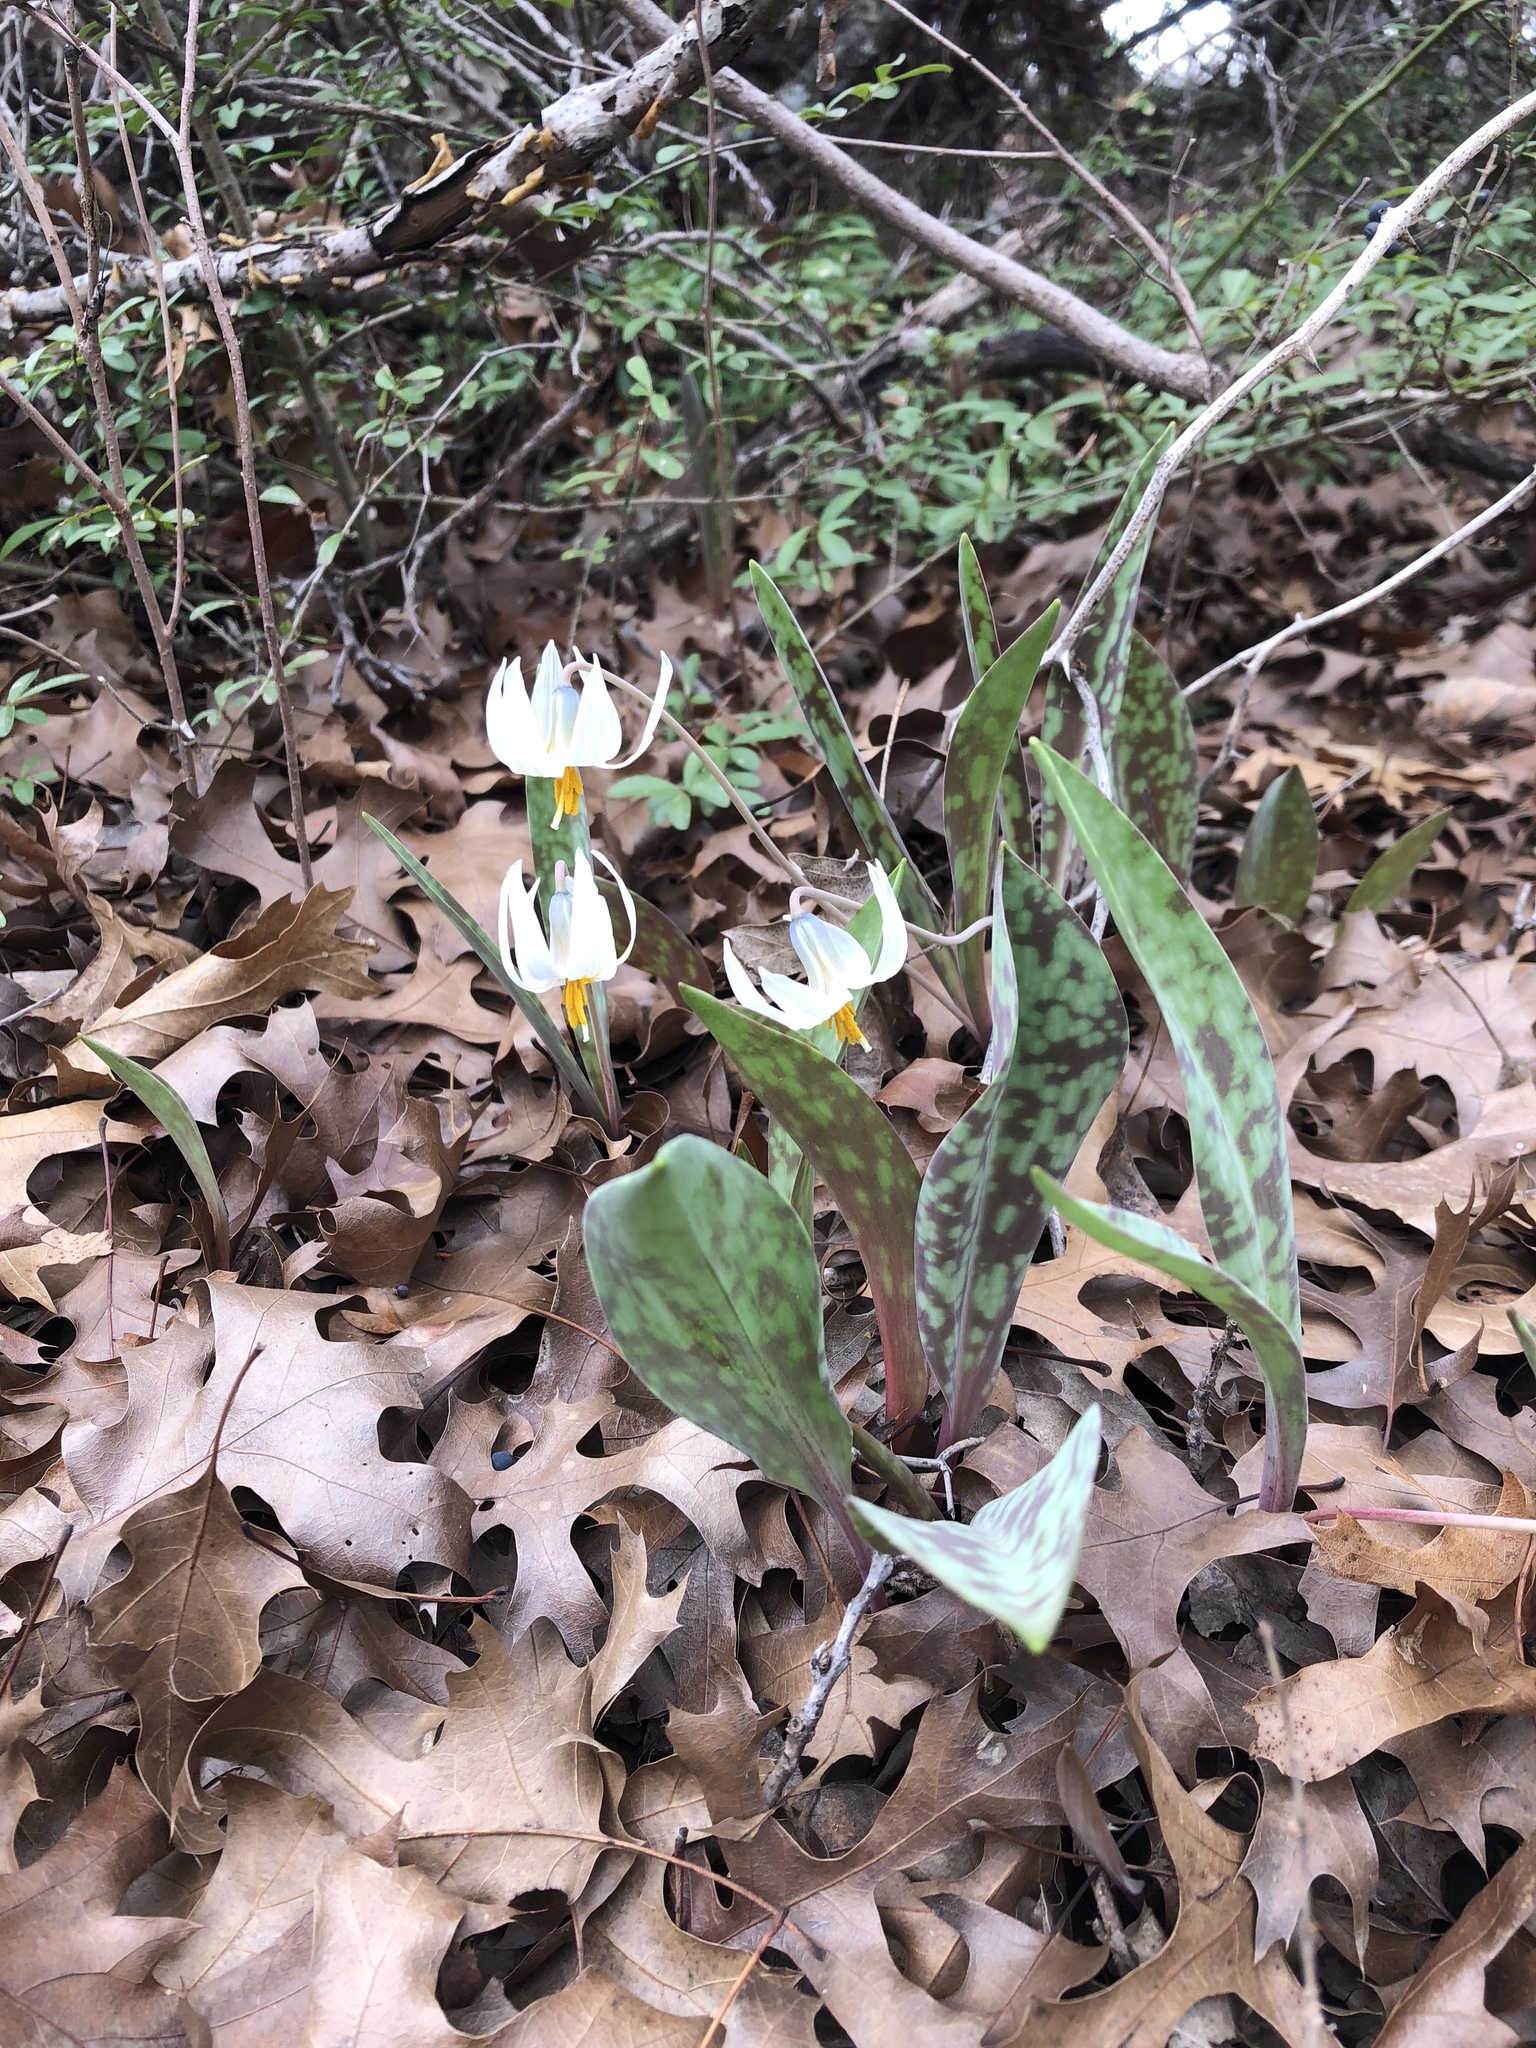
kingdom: Plantae
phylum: Tracheophyta
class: Liliopsida
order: Liliales
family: Liliaceae
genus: Erythronium
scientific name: Erythronium albidum
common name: White trout-lily
